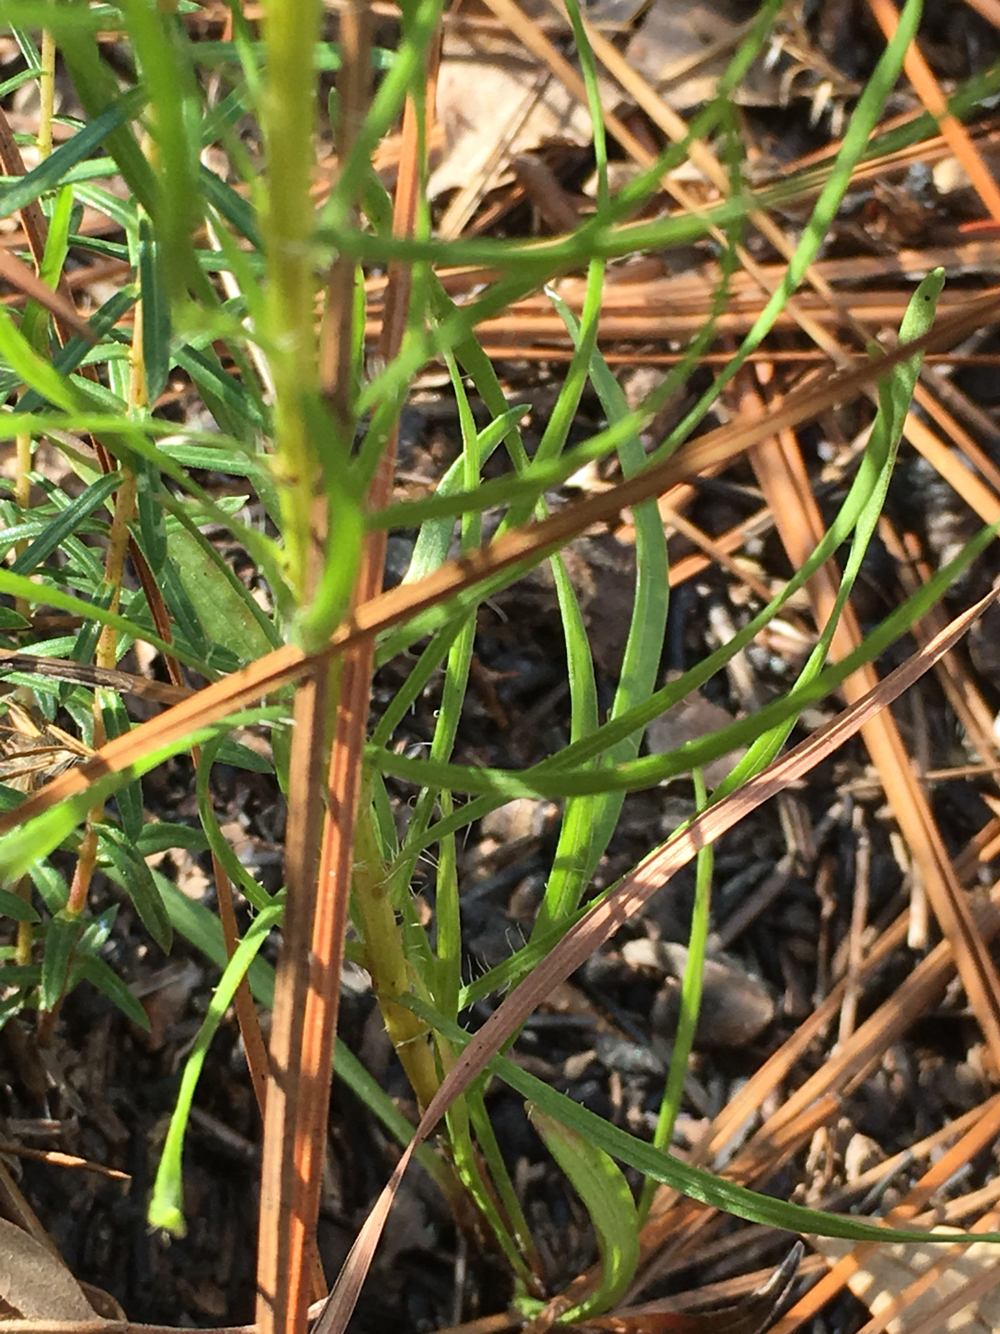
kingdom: Plantae
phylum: Tracheophyta
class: Magnoliopsida
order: Asterales
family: Asteraceae
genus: Liatris
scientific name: Liatris pilosa
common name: Grass-leaf gayfeather
